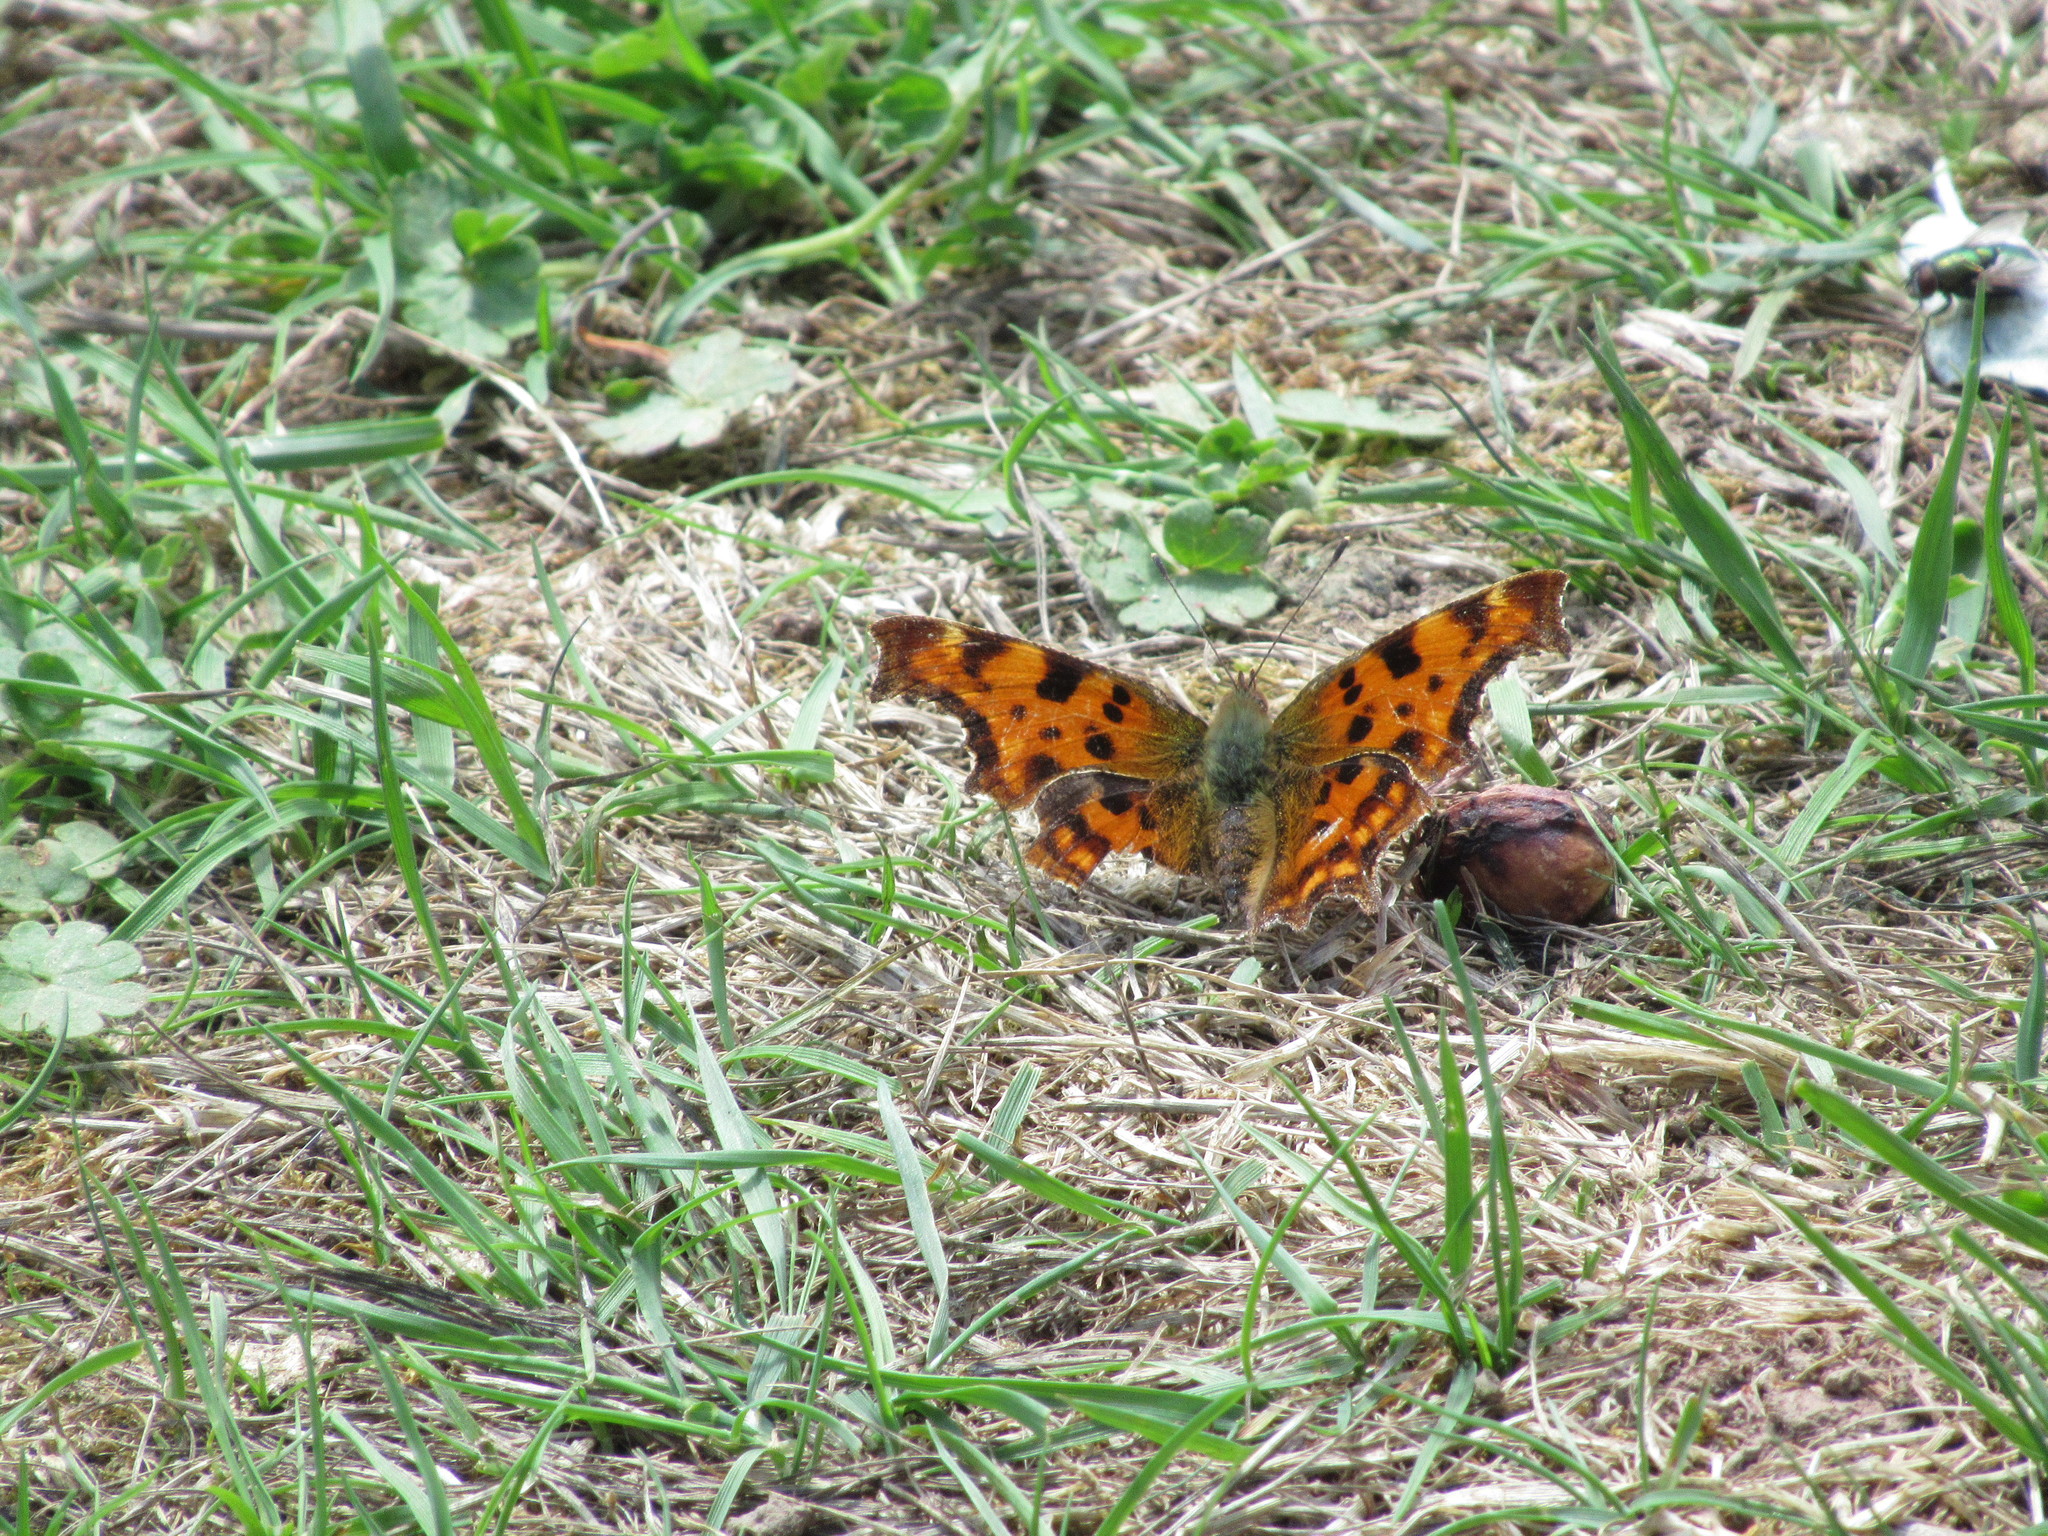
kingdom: Animalia
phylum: Arthropoda
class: Insecta
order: Lepidoptera
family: Nymphalidae
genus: Polygonia
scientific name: Polygonia c-album
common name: Comma
